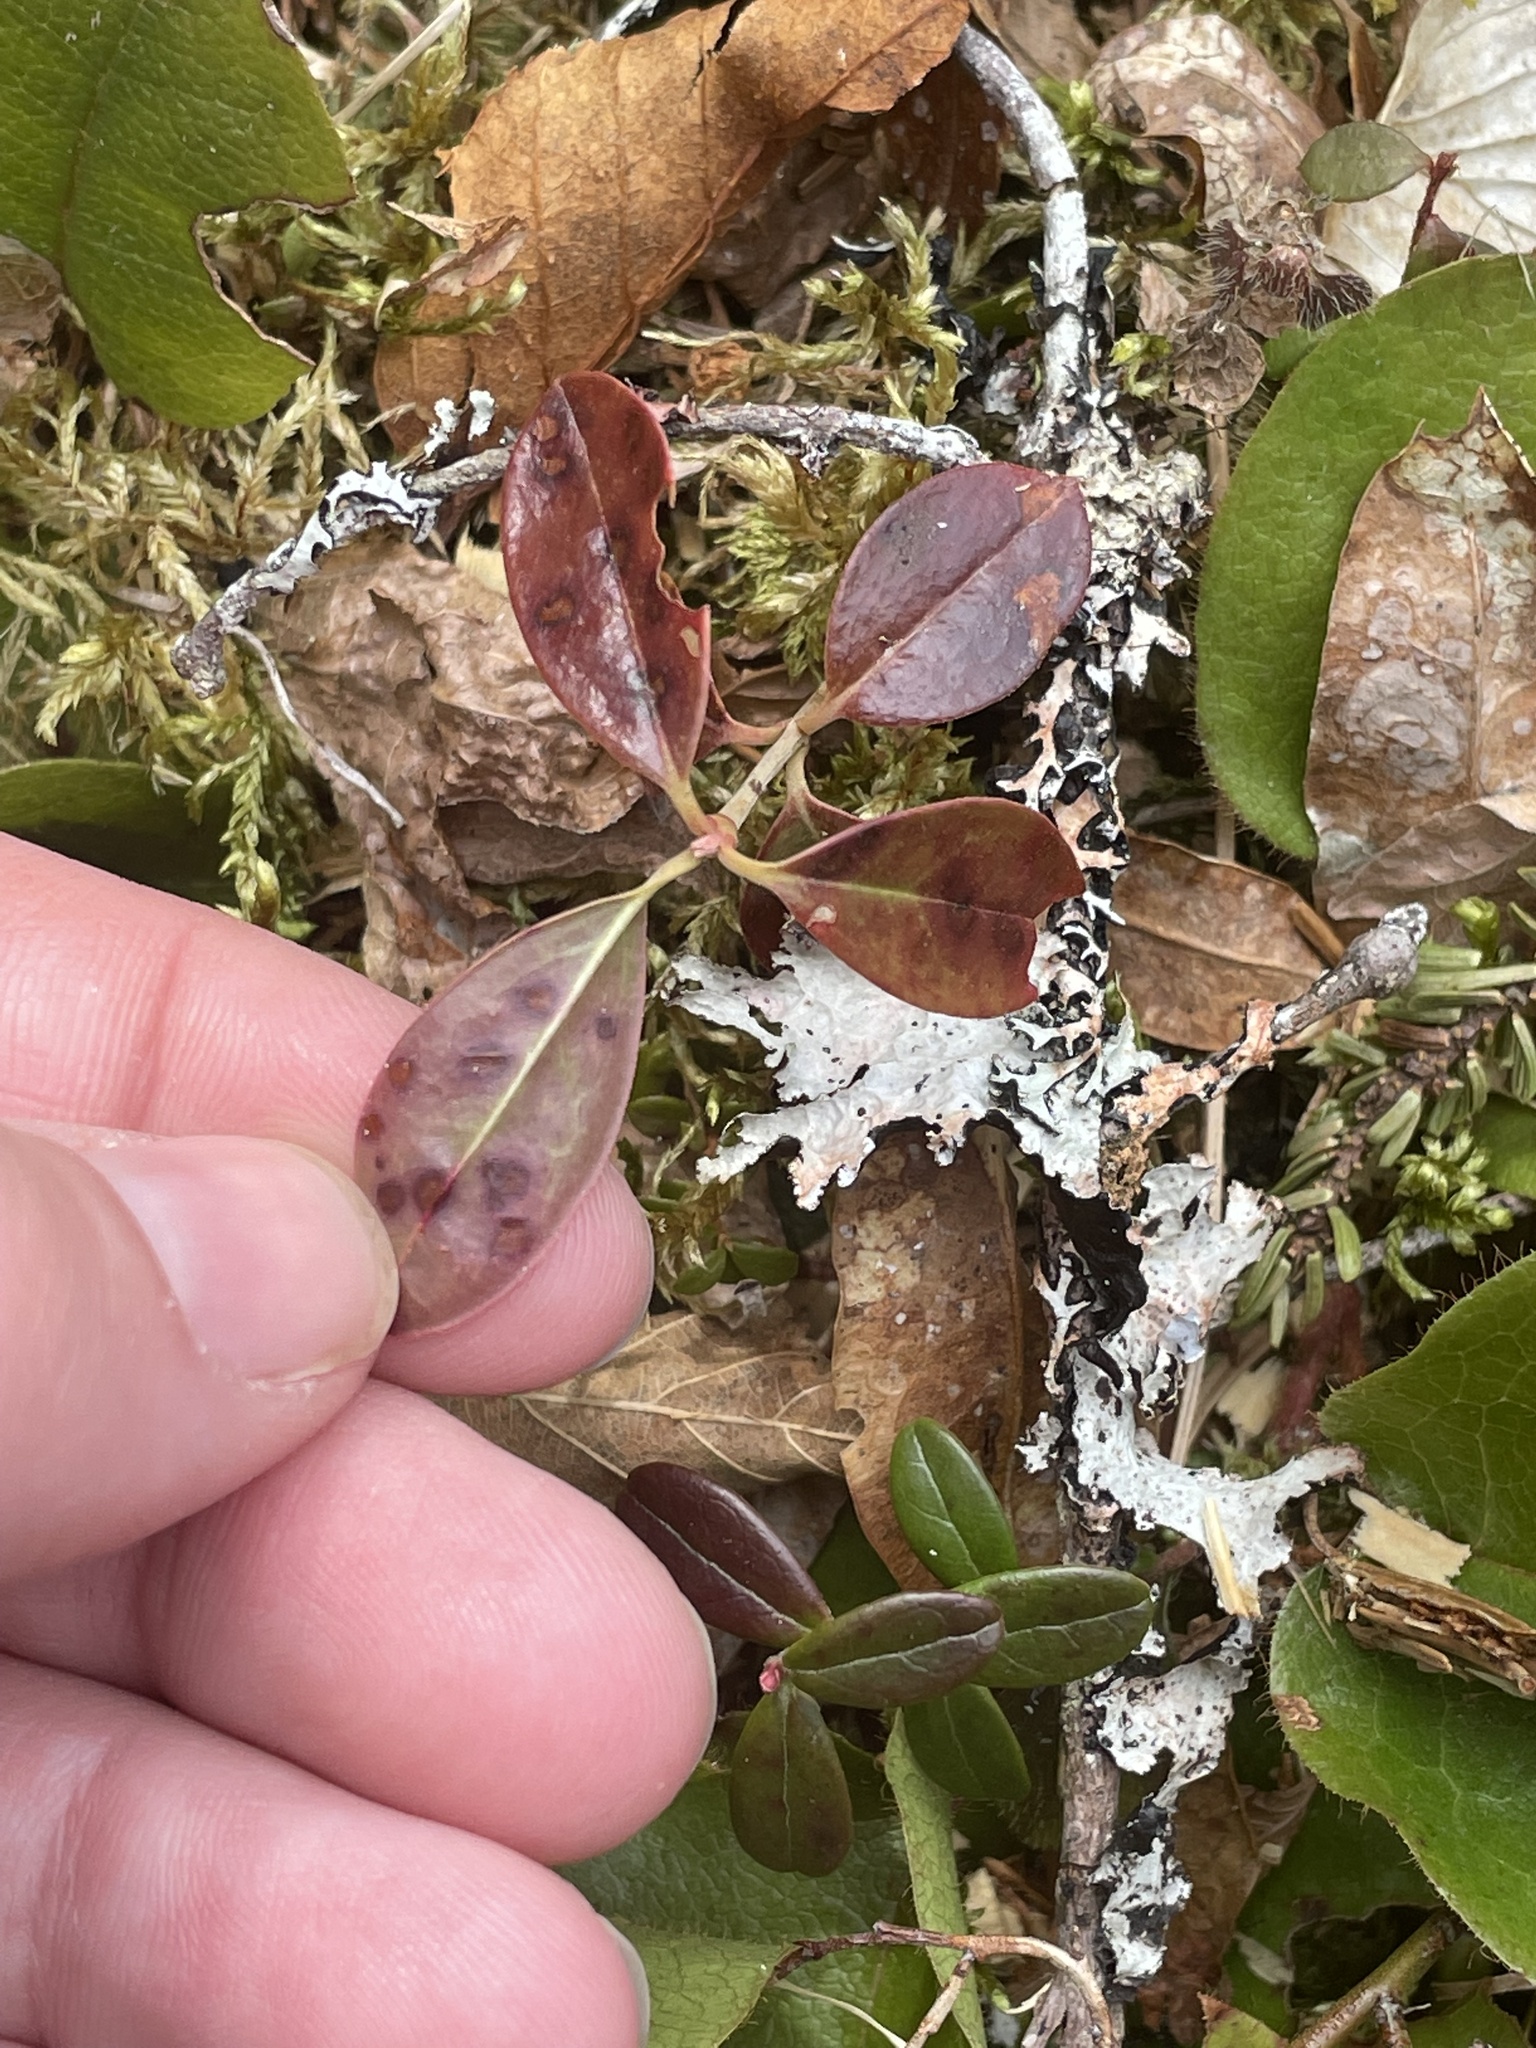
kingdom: Plantae
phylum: Tracheophyta
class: Magnoliopsida
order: Ericales
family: Ericaceae
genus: Gaultheria
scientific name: Gaultheria procumbens
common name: Checkerberry
